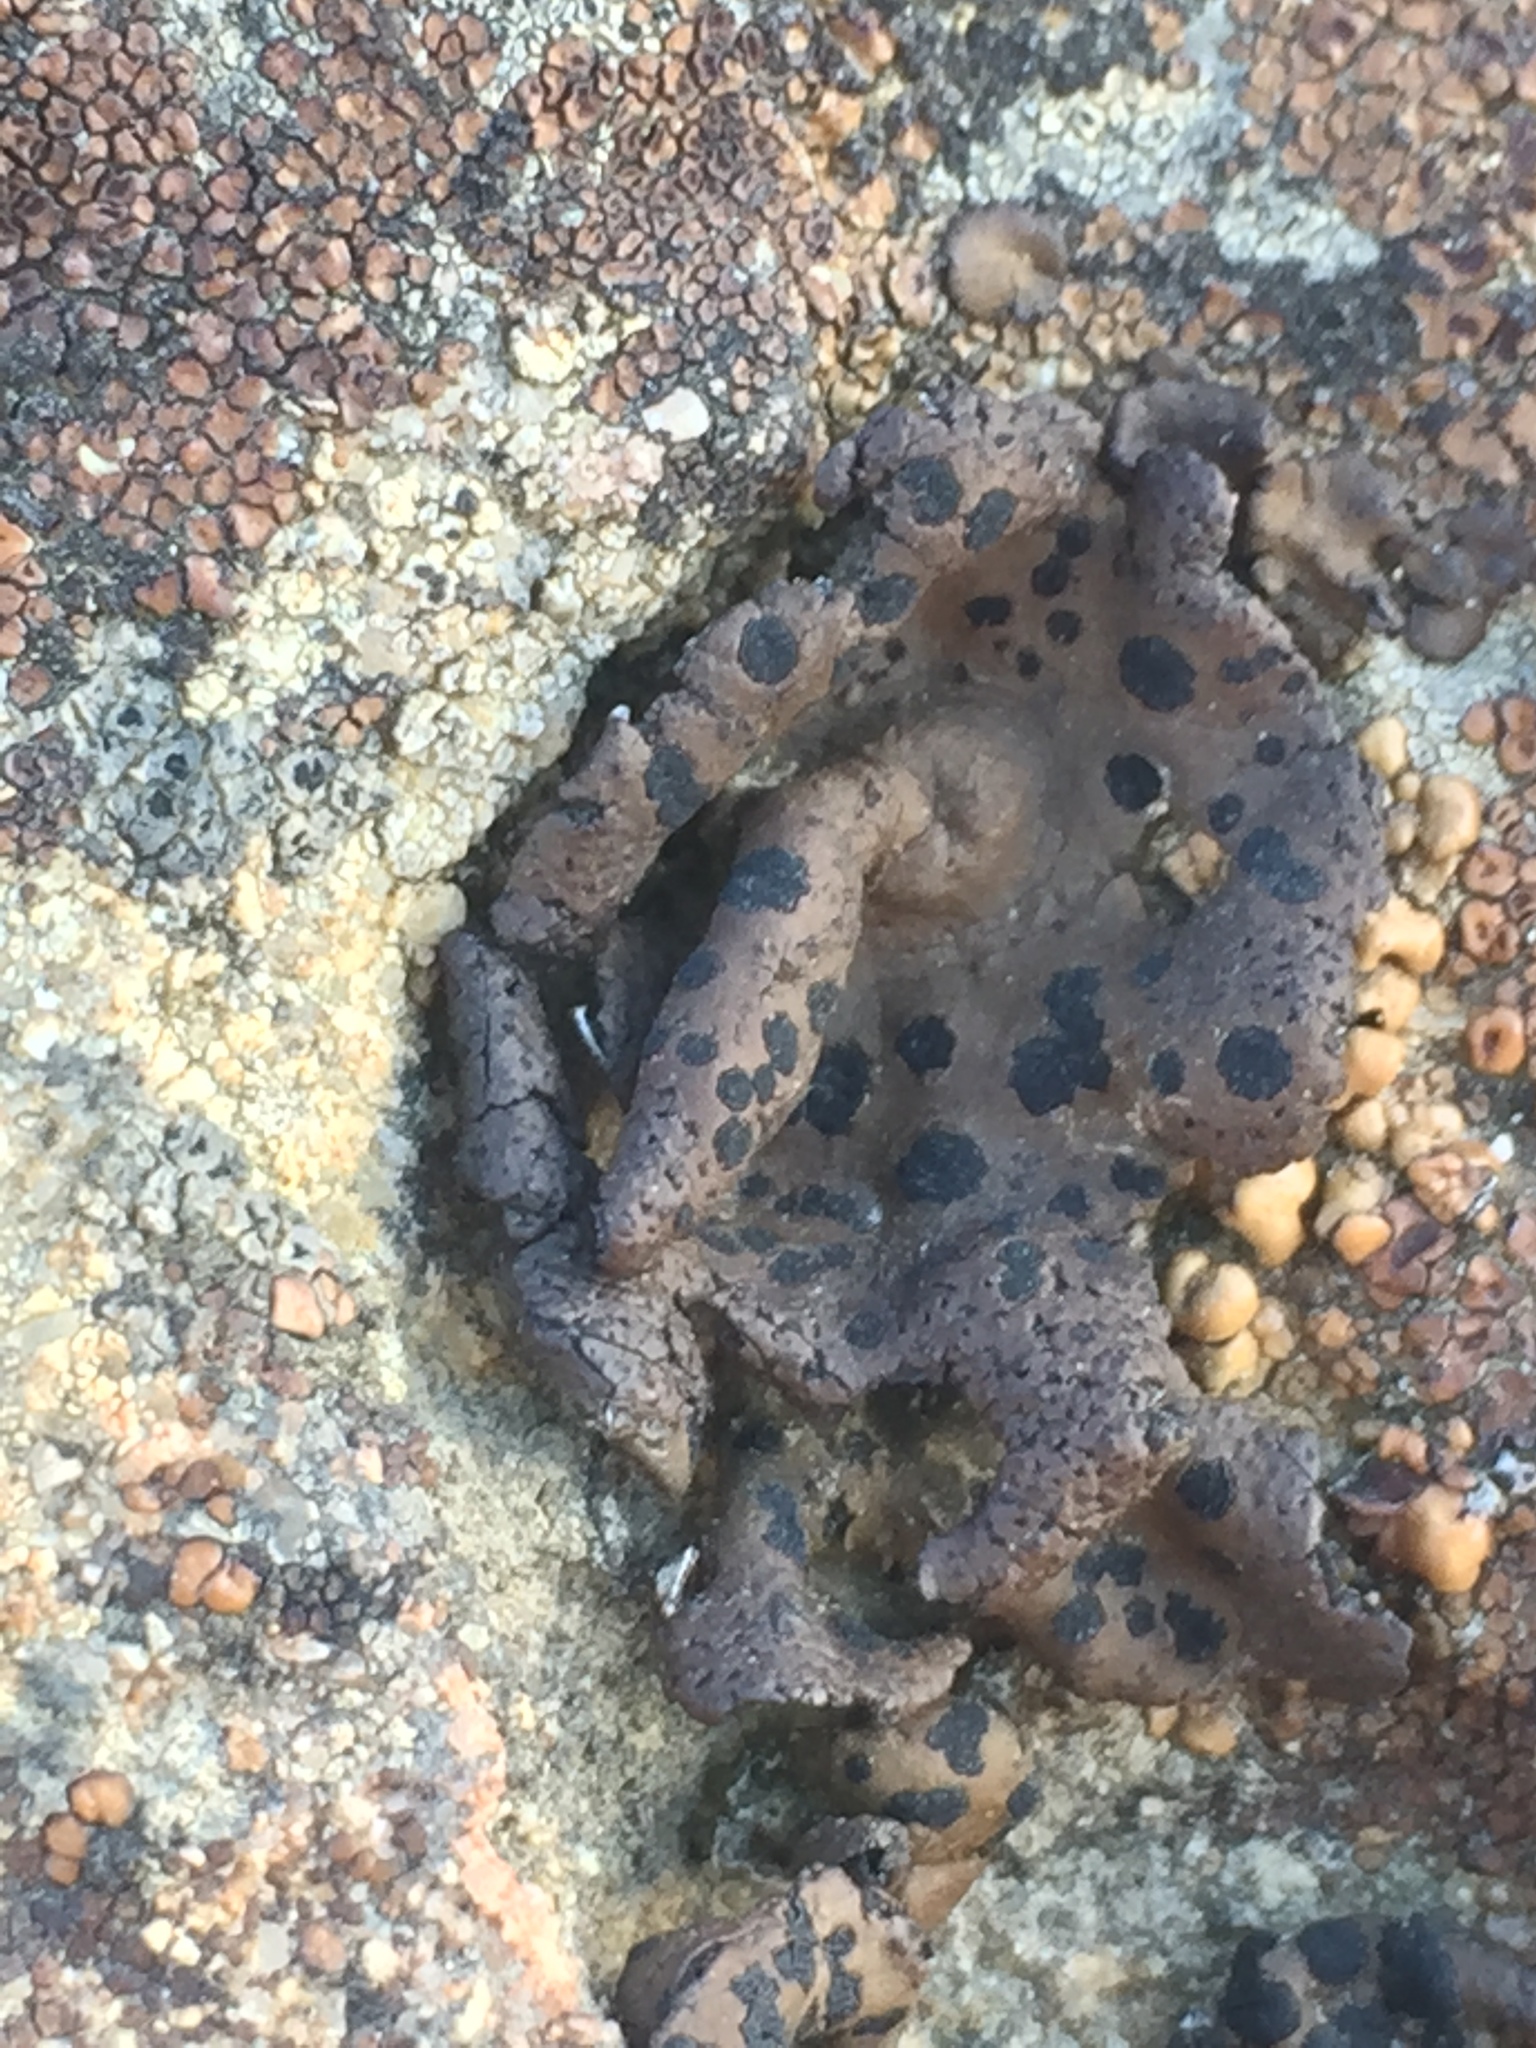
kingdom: Fungi
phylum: Ascomycota
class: Lecanoromycetes
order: Umbilicariales
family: Umbilicariaceae
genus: Umbilicaria
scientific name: Umbilicaria phaea
